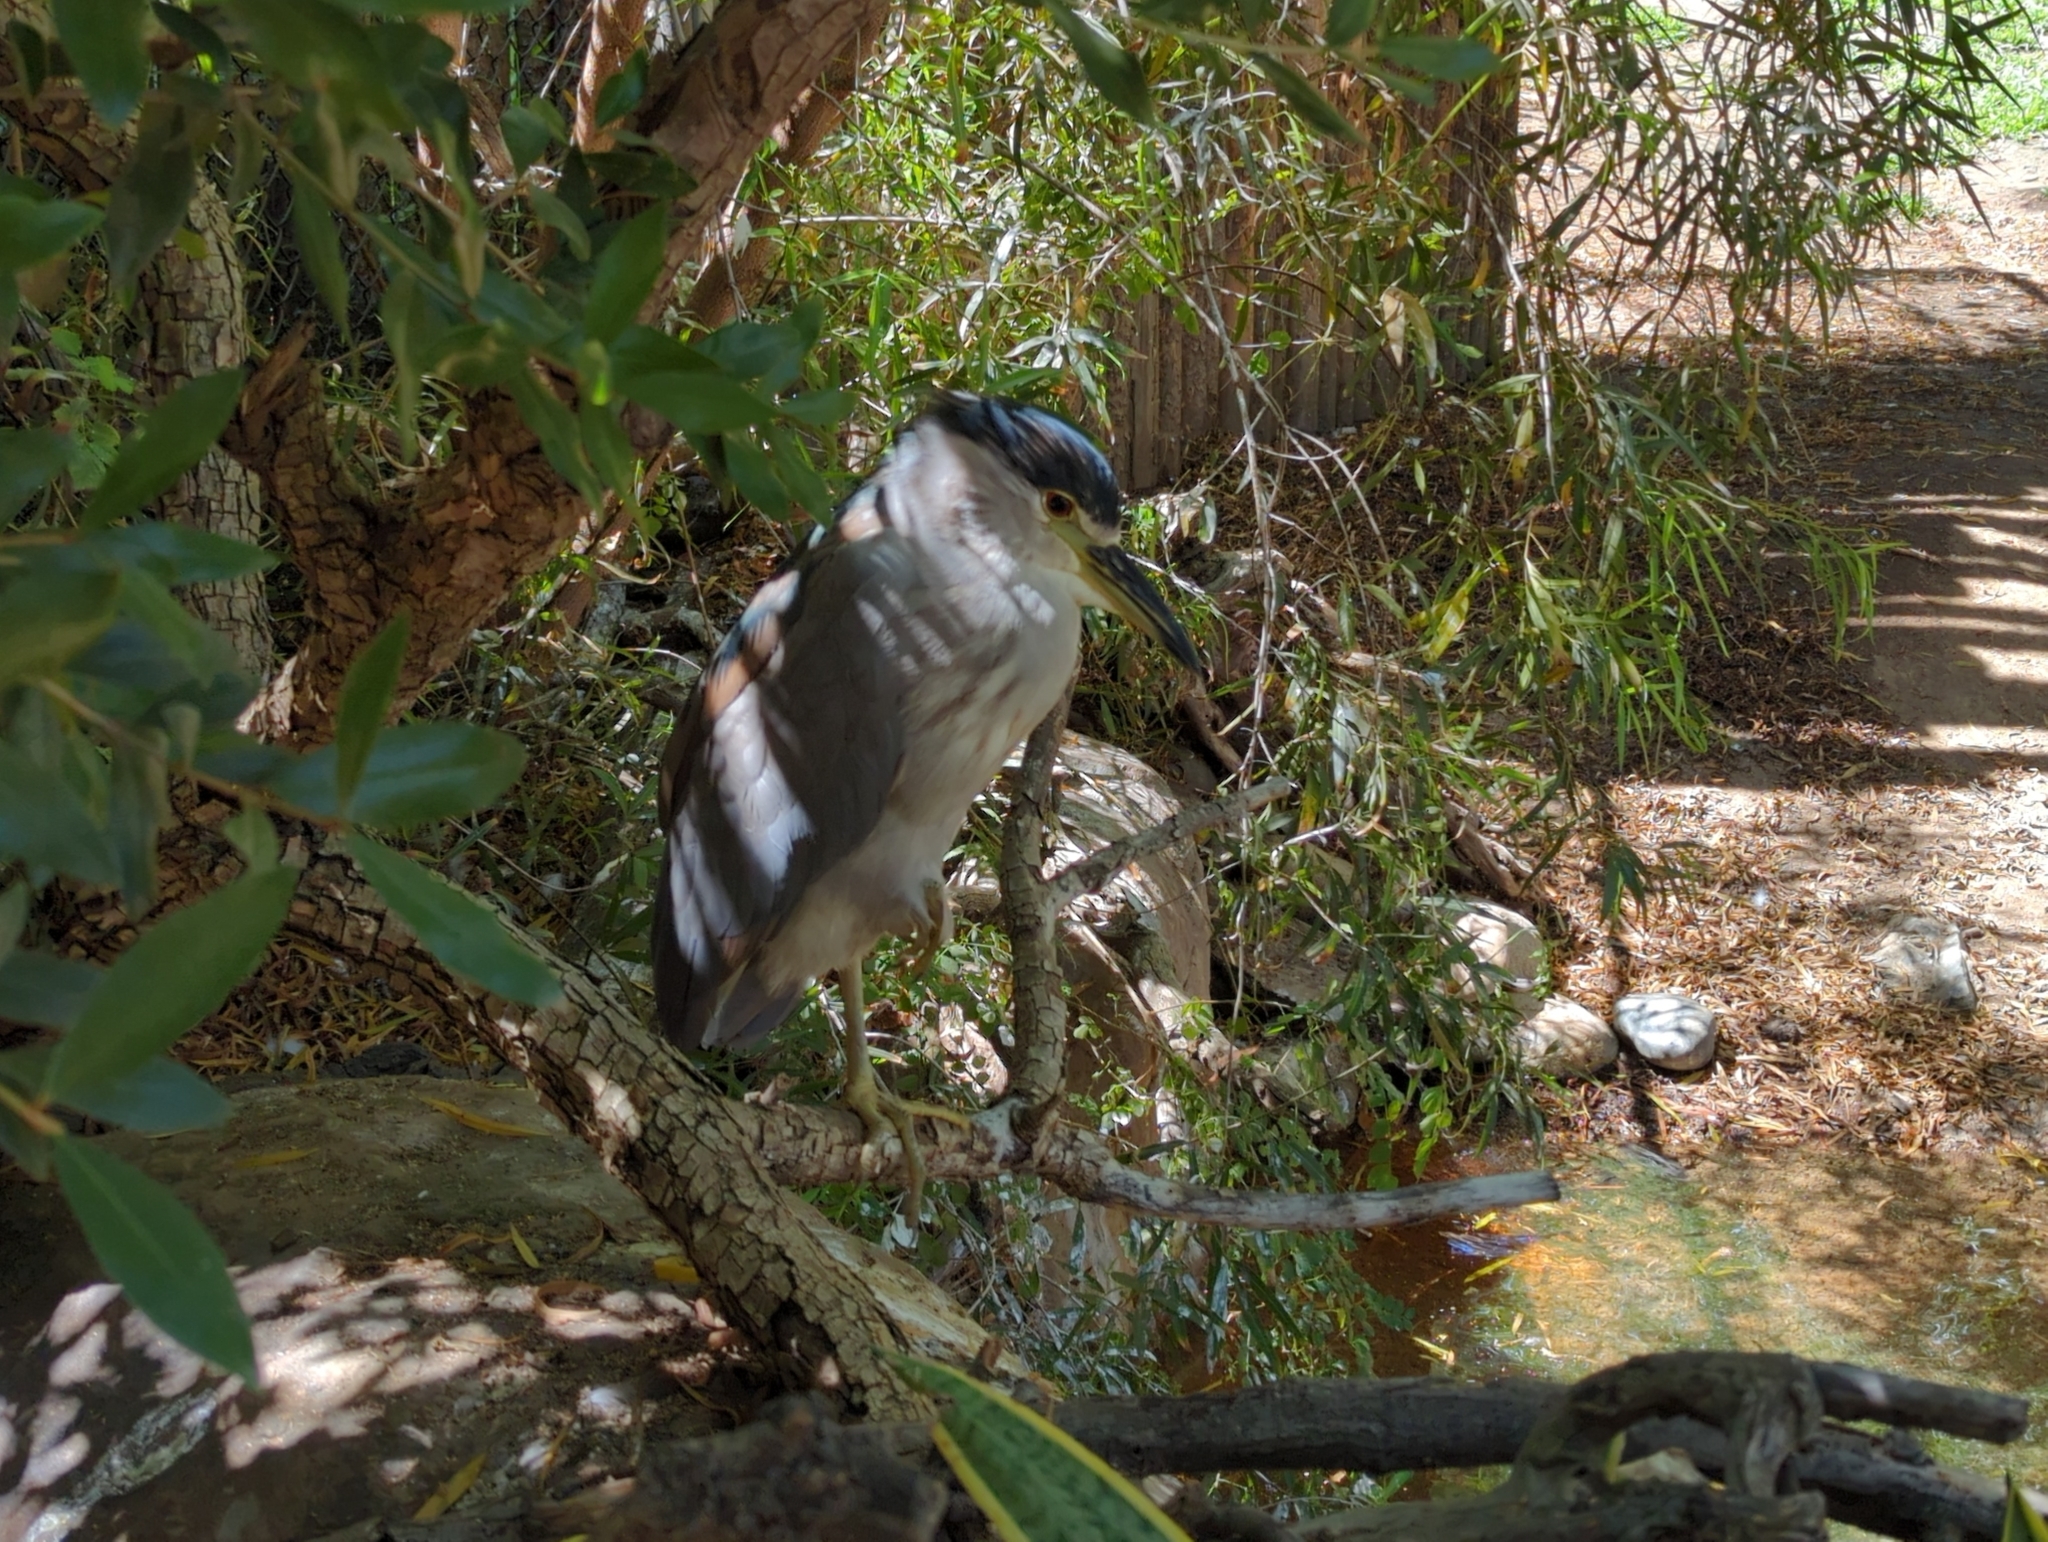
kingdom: Animalia
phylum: Chordata
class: Aves
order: Pelecaniformes
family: Ardeidae
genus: Nycticorax
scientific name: Nycticorax nycticorax
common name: Black-crowned night heron
